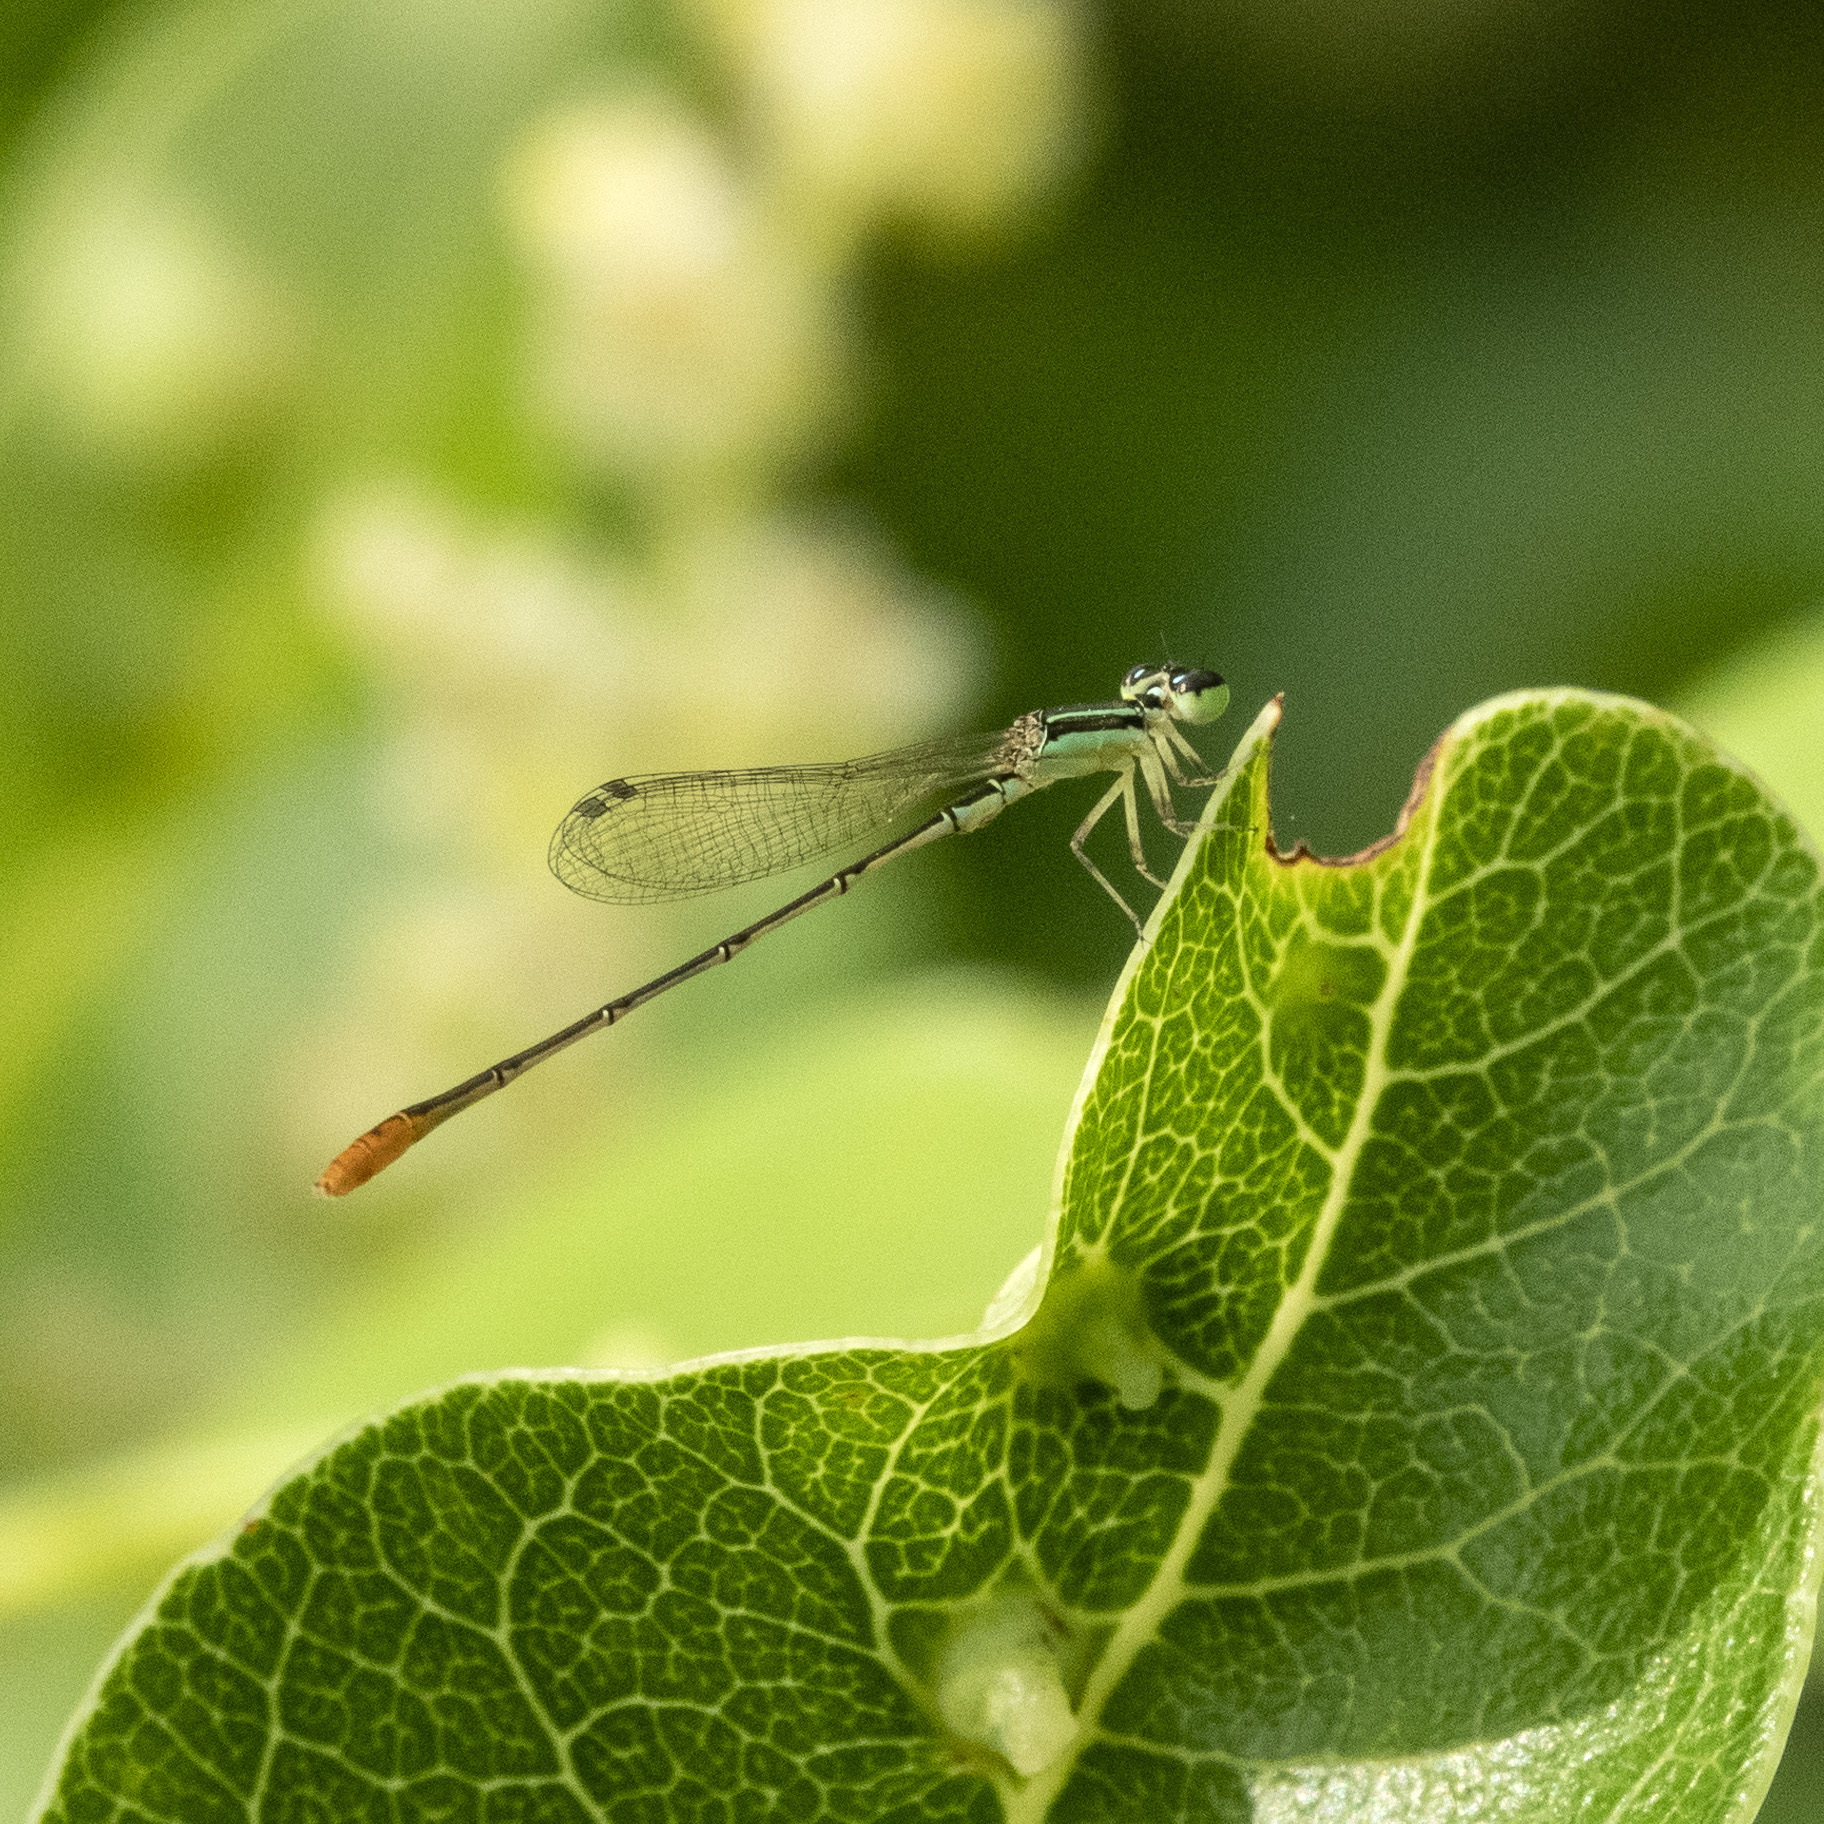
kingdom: Animalia
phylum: Arthropoda
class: Insecta
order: Odonata
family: Coenagrionidae
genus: Agriocnemis
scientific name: Agriocnemis pygmaea
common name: Pygmy wisp
